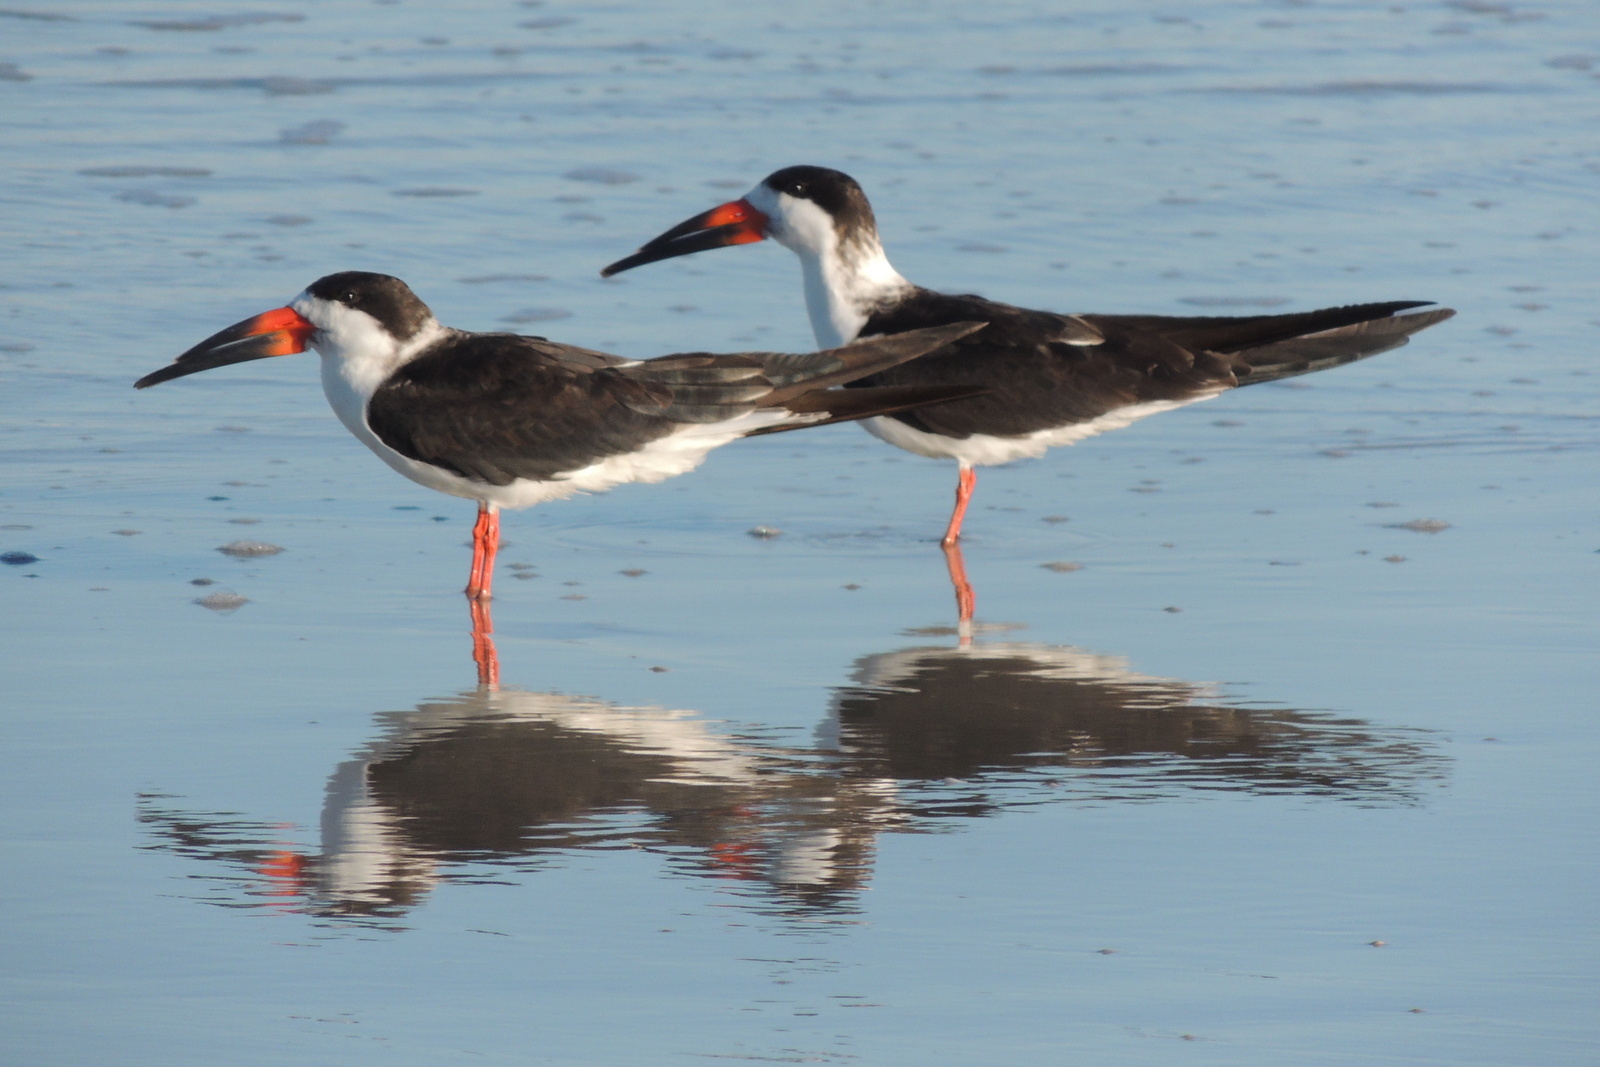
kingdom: Animalia
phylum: Chordata
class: Aves
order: Charadriiformes
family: Laridae
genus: Rynchops
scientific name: Rynchops niger
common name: Black skimmer
